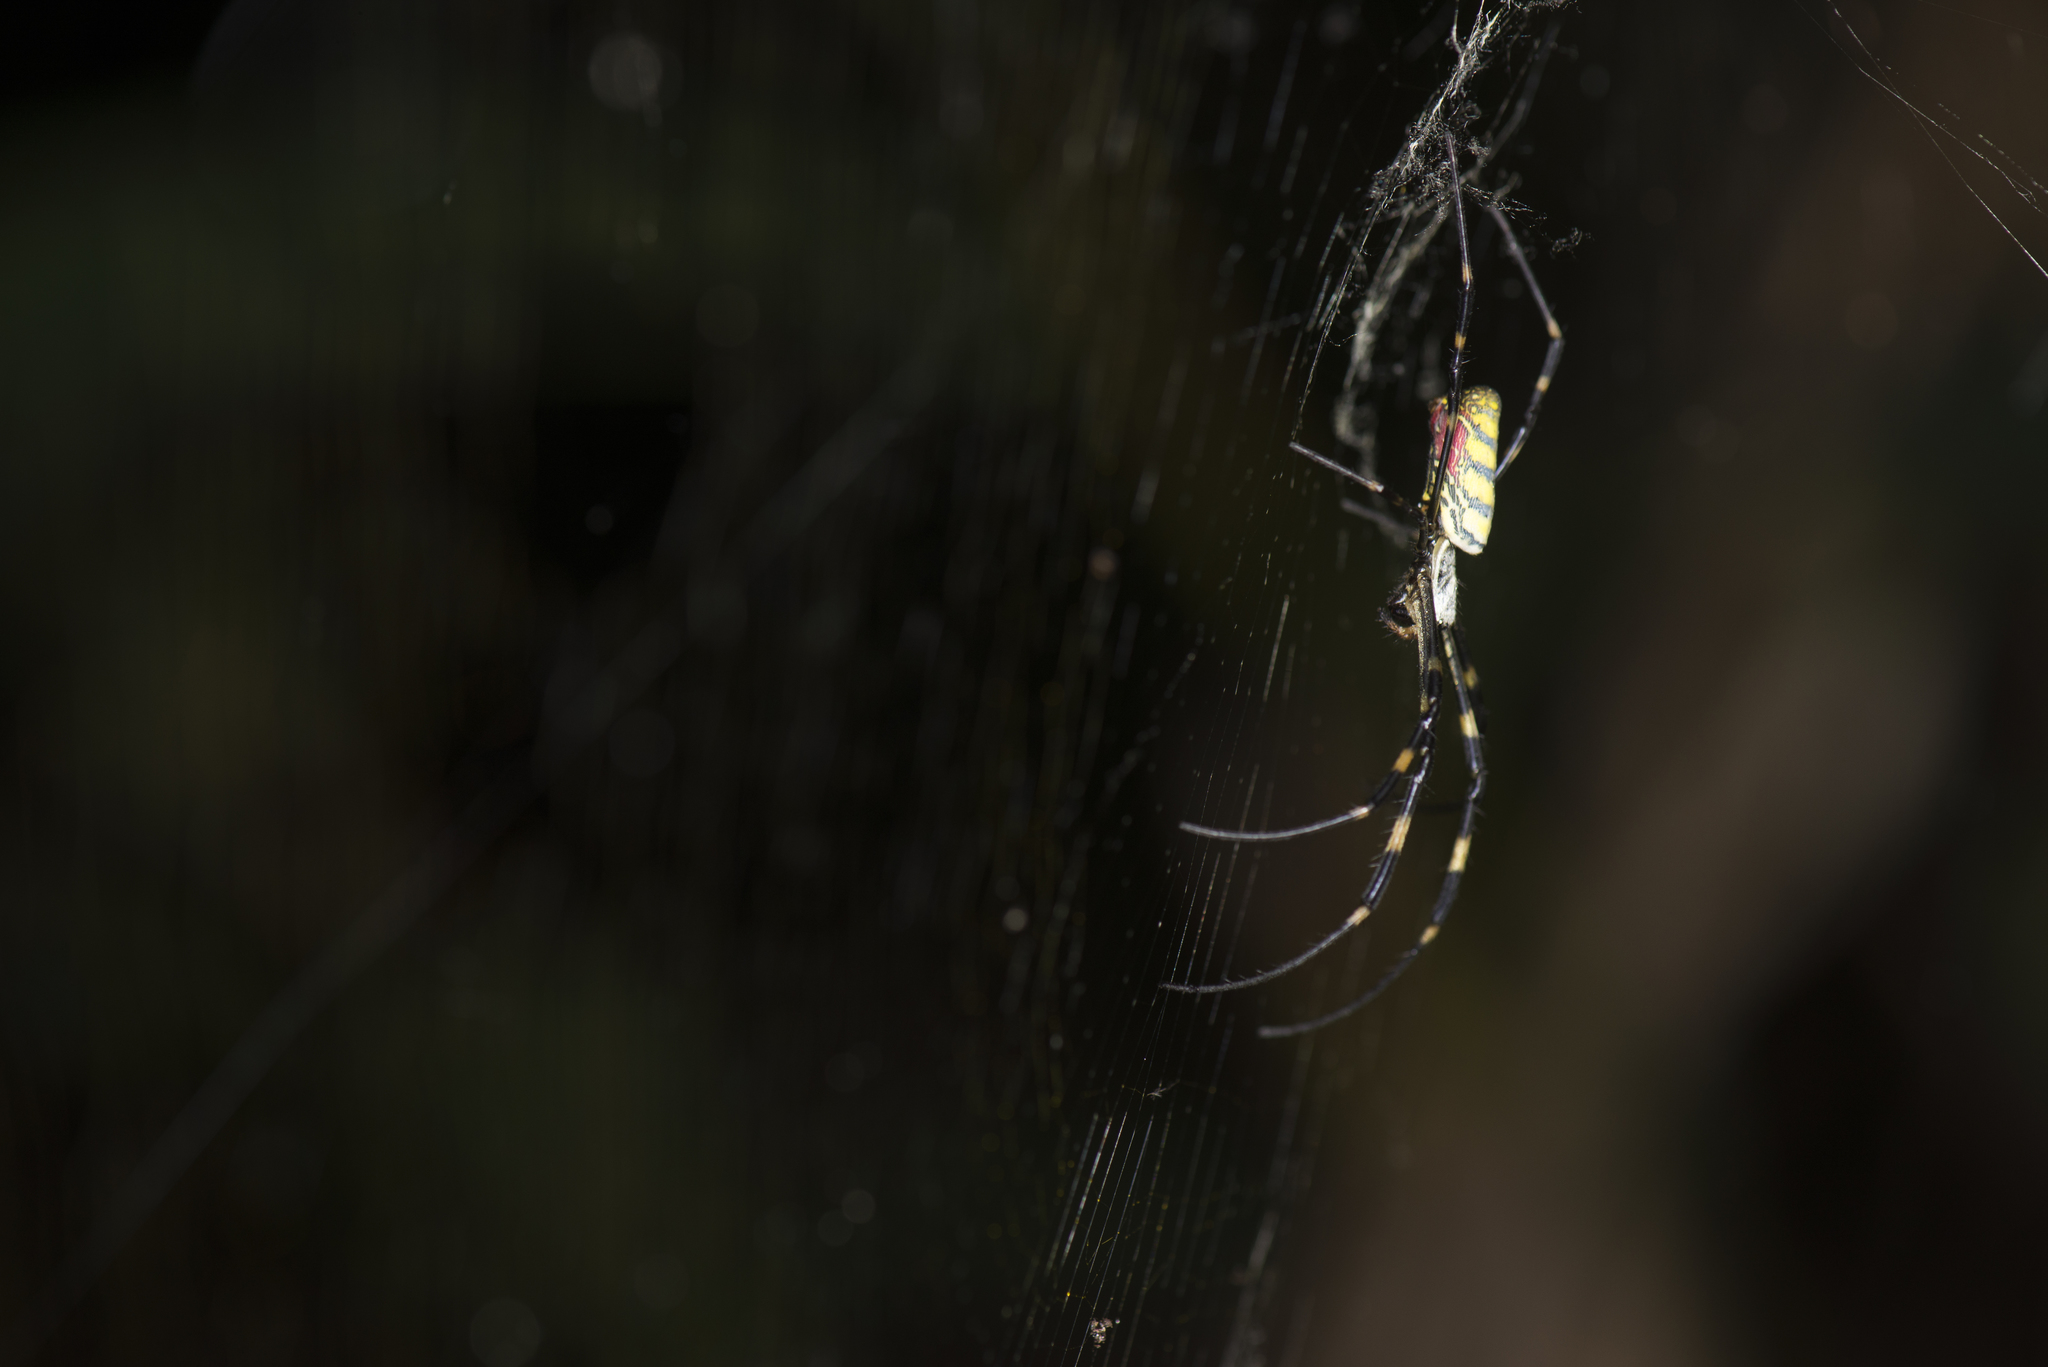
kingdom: Animalia
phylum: Arthropoda
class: Arachnida
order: Araneae
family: Araneidae
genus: Trichonephila
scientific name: Trichonephila clavata
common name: Jorō spider
